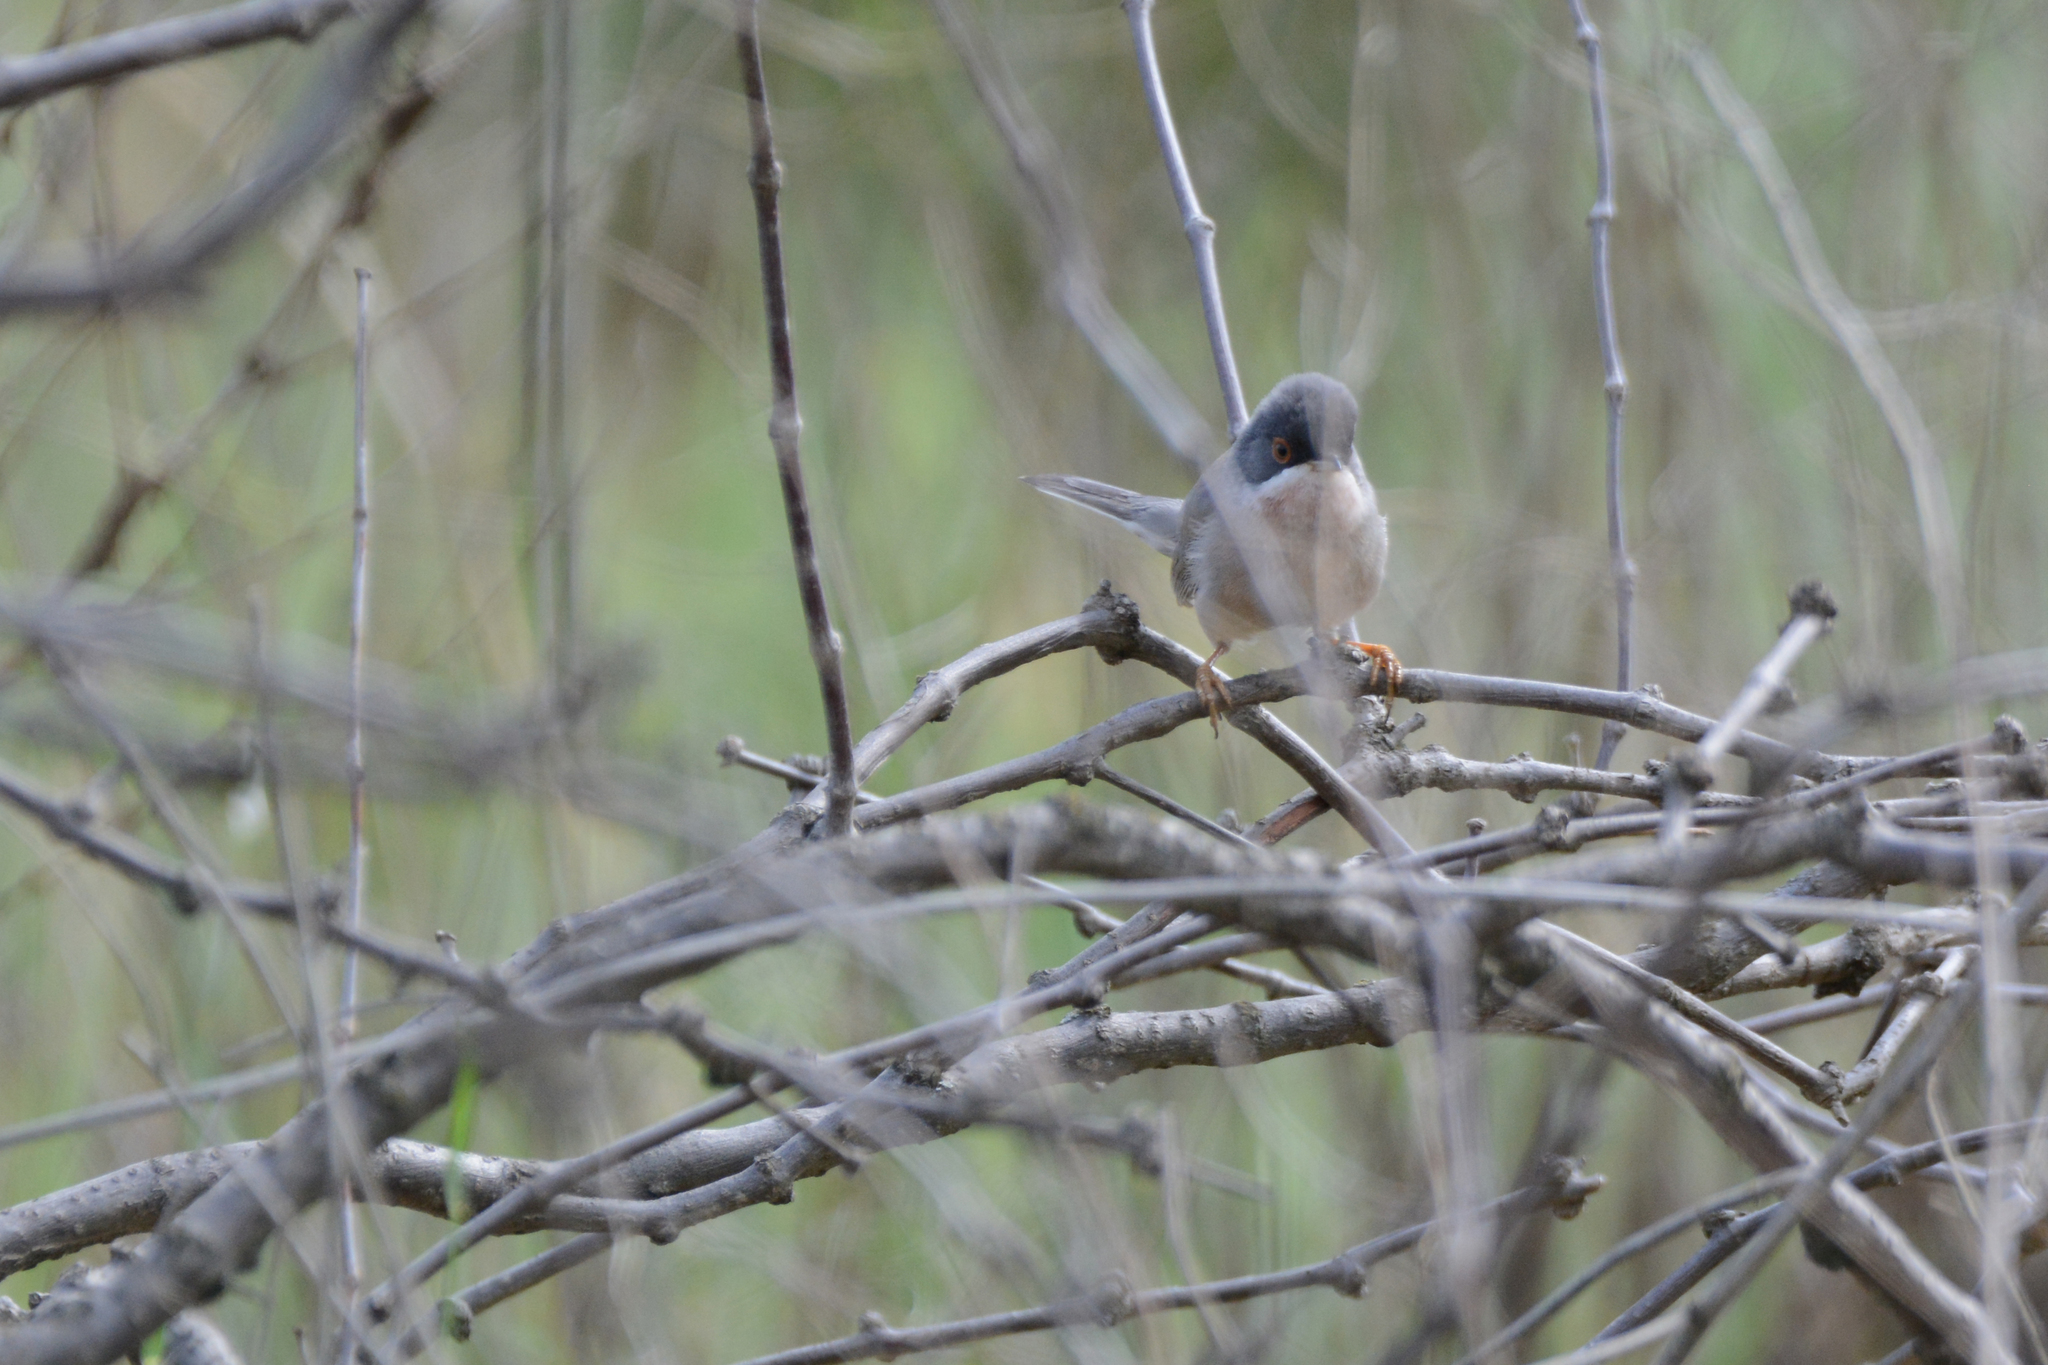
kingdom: Animalia
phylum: Chordata
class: Aves
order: Passeriformes
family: Sylviidae
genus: Sylvia
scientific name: Sylvia mystacea
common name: Menetries's warbler
